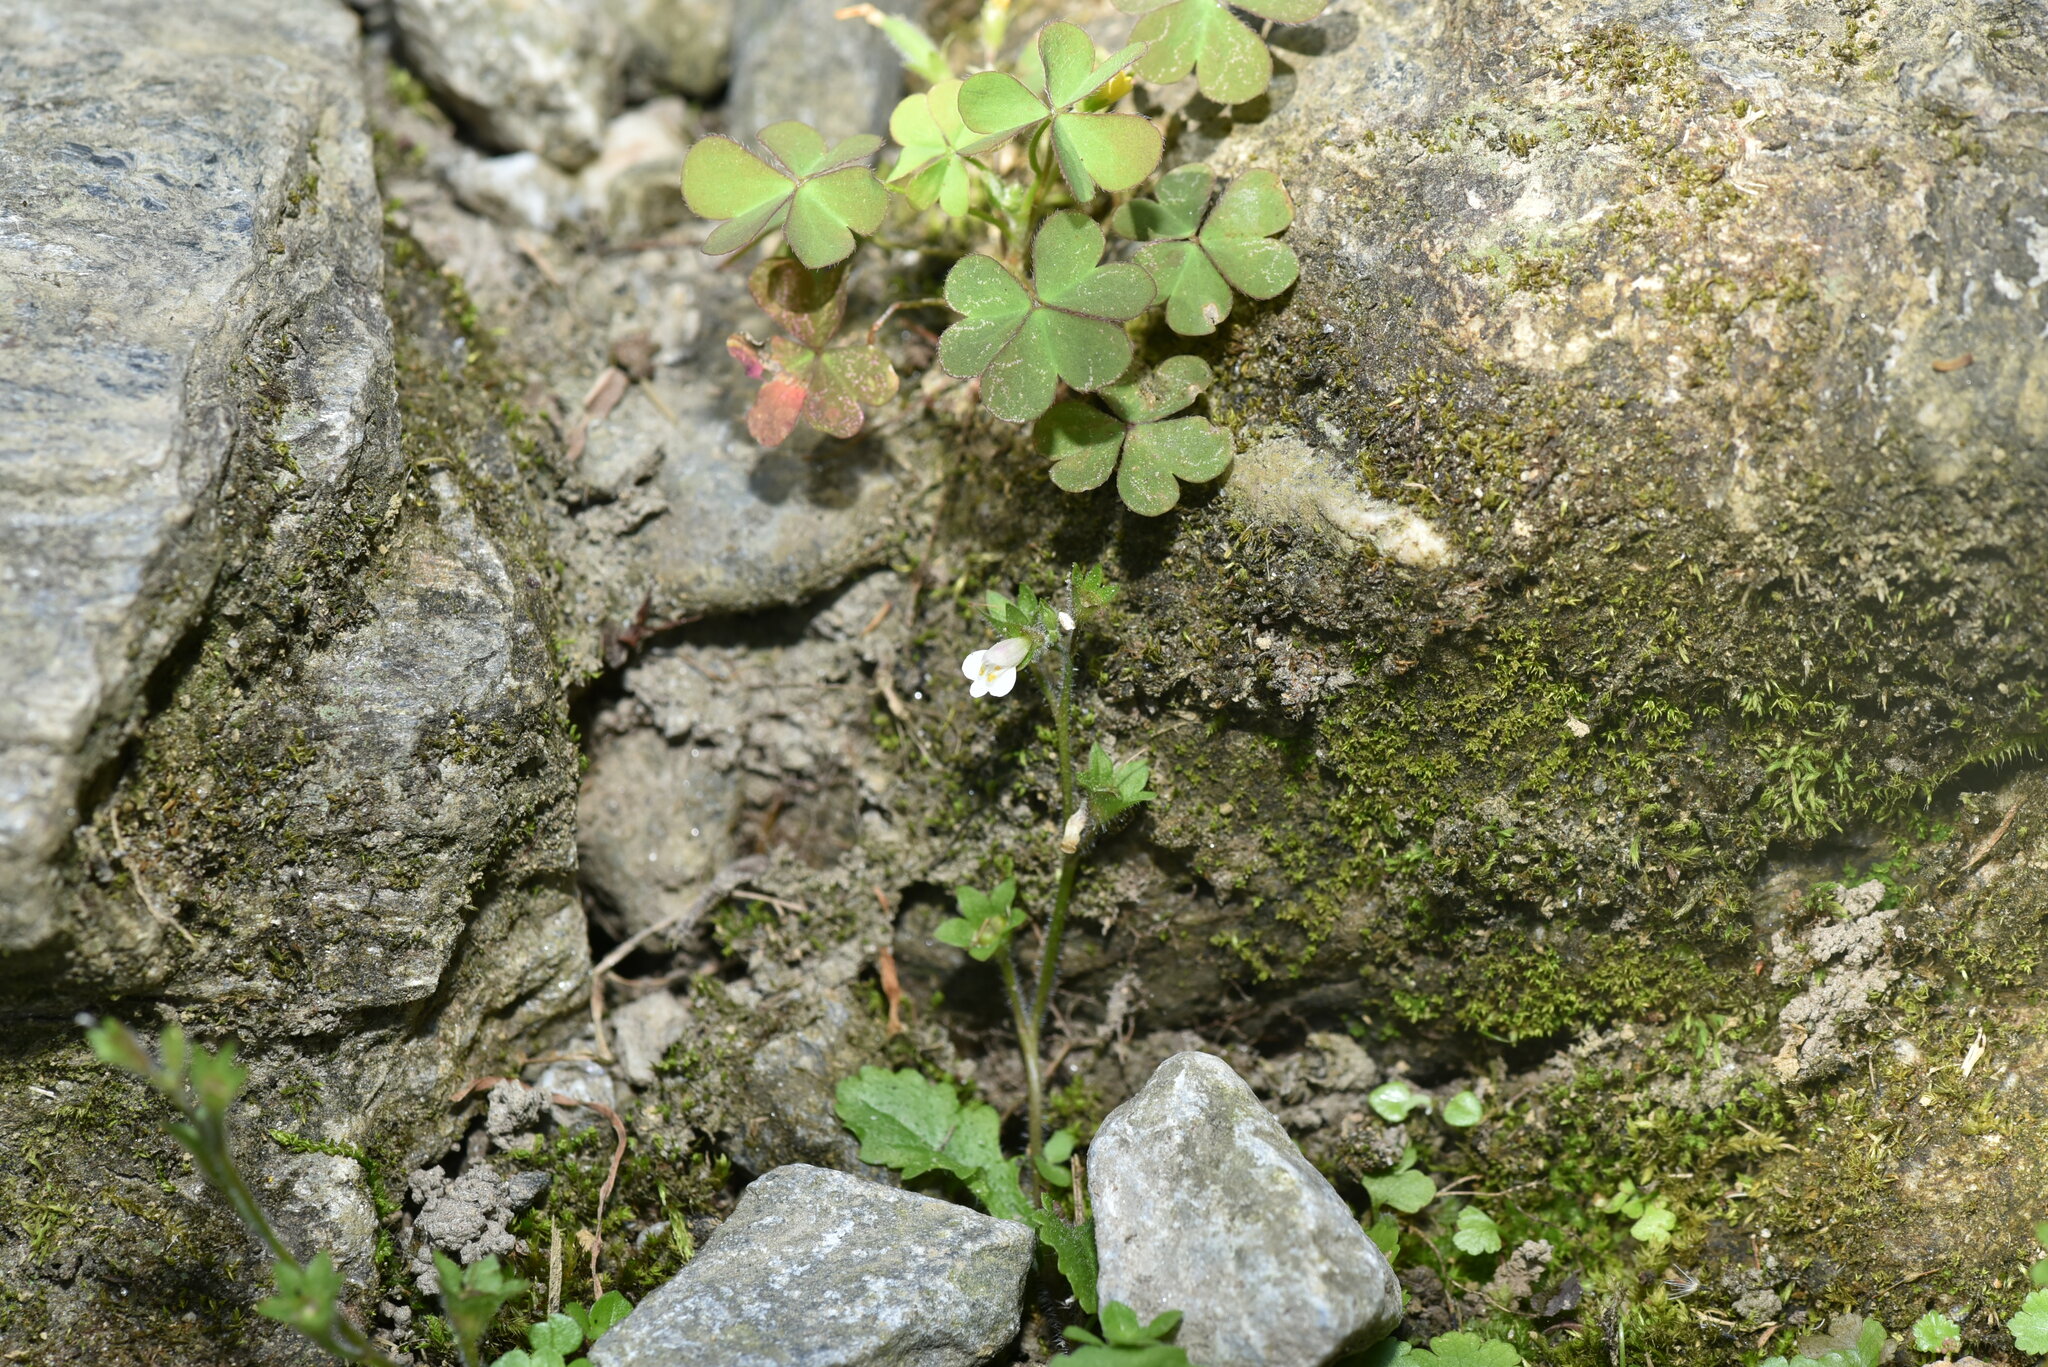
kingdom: Plantae
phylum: Tracheophyta
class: Magnoliopsida
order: Lamiales
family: Mazaceae
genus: Mazus
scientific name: Mazus goodeniifolius
